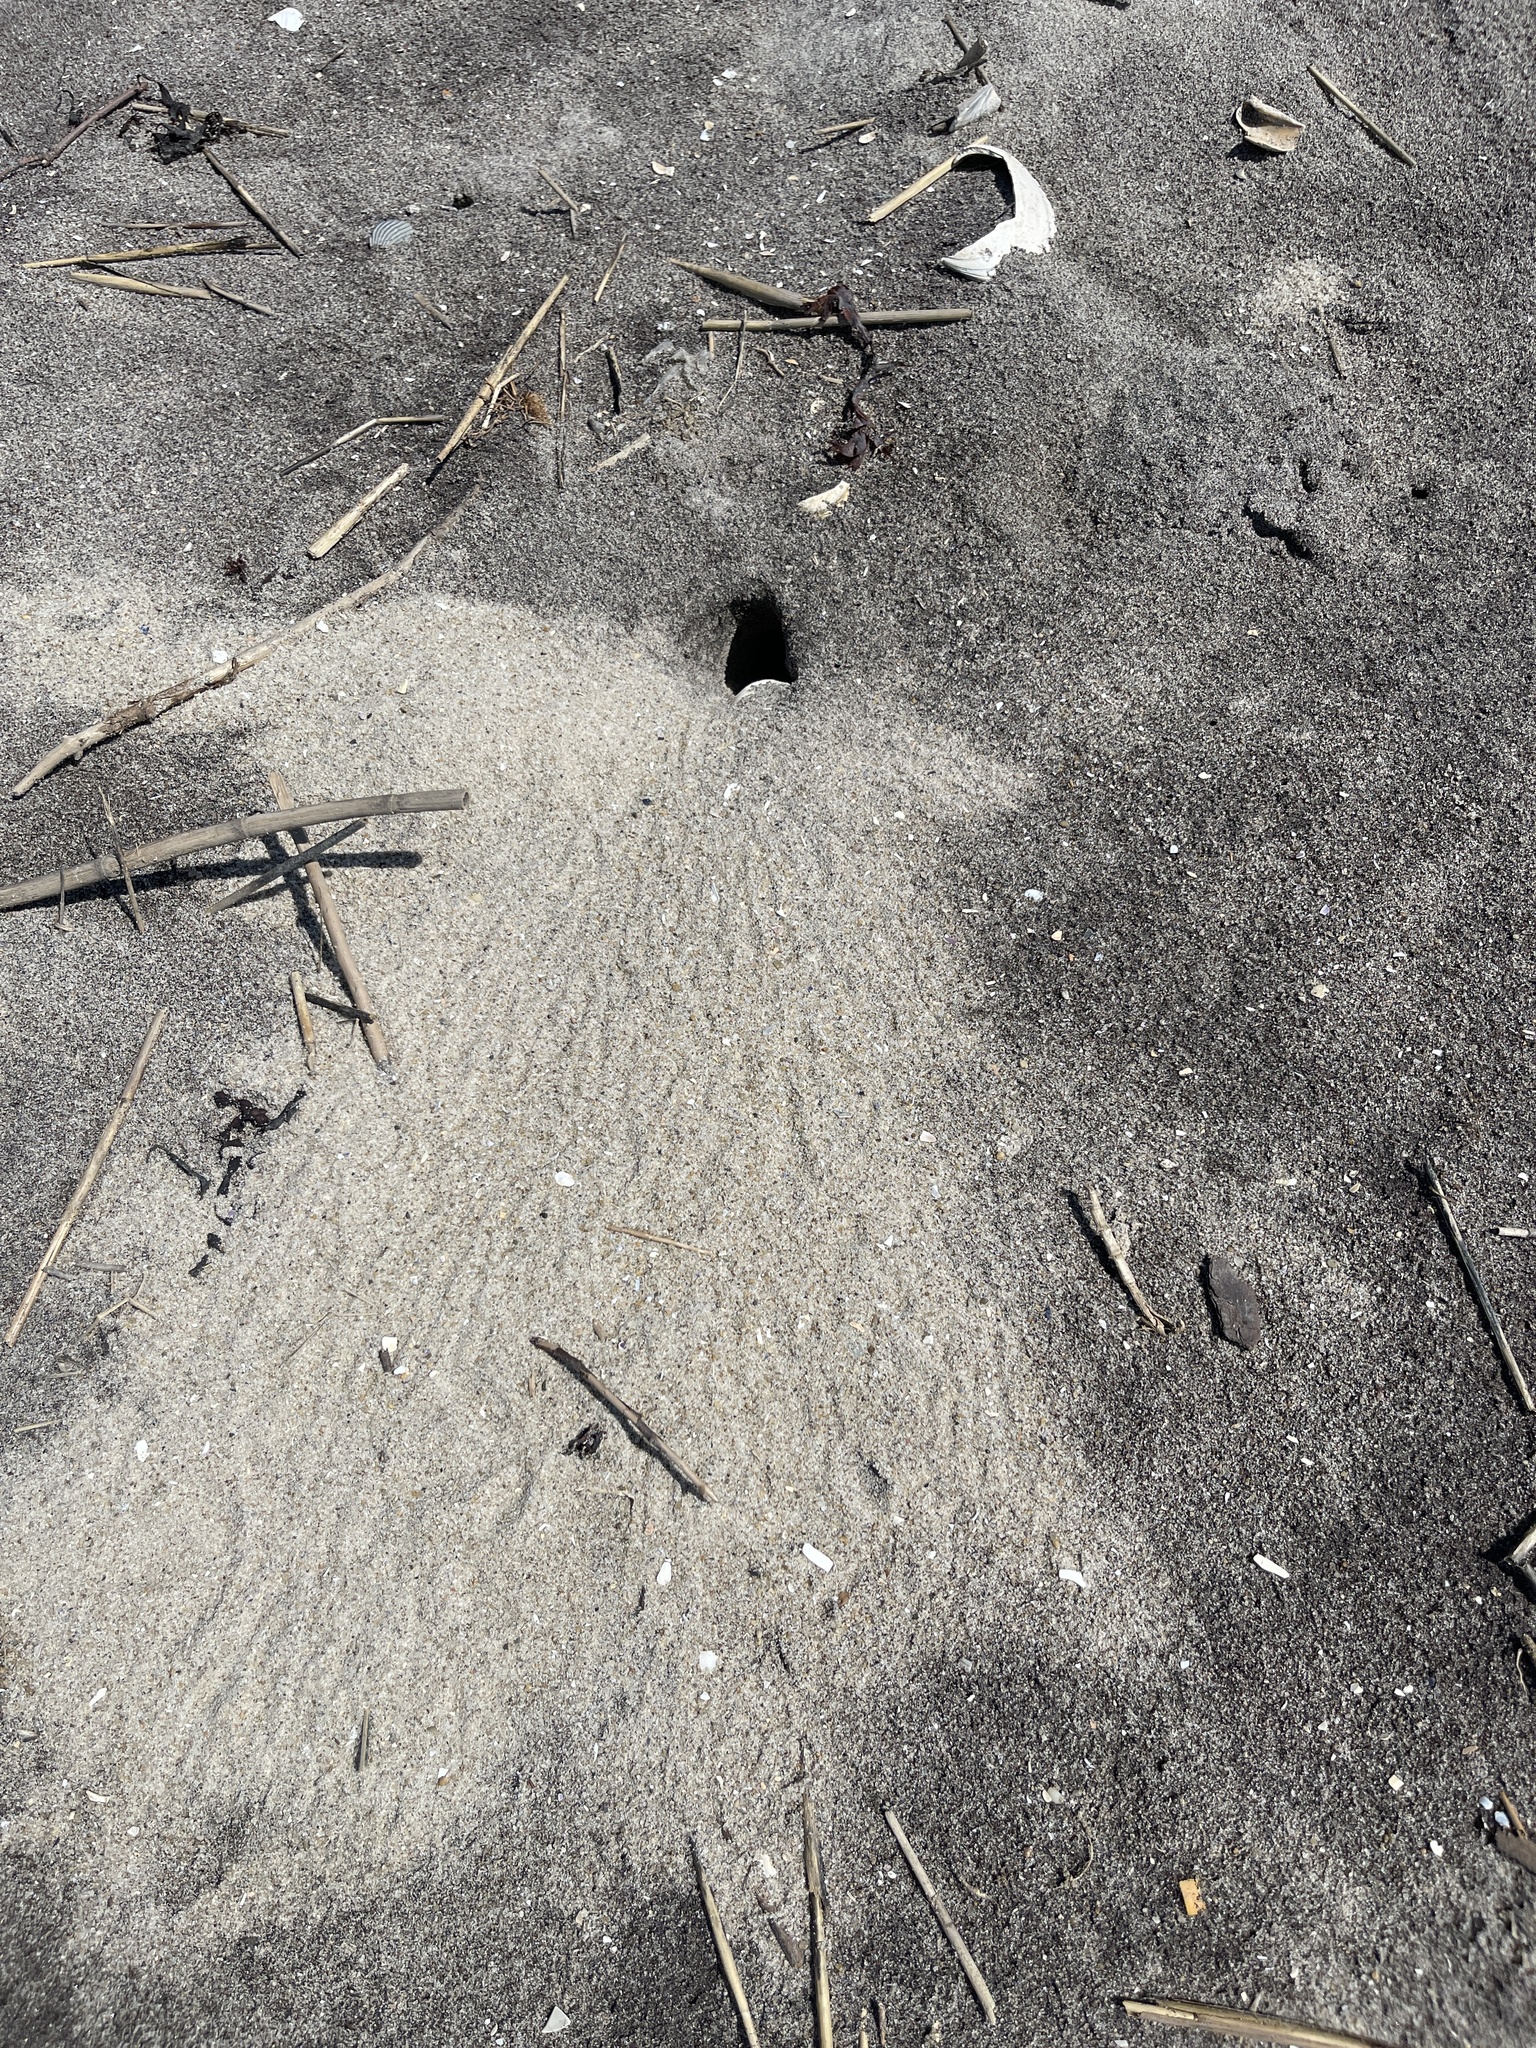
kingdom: Animalia
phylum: Arthropoda
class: Malacostraca
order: Decapoda
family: Ocypodidae
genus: Ocypode
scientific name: Ocypode quadrata
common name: Ghost crab
